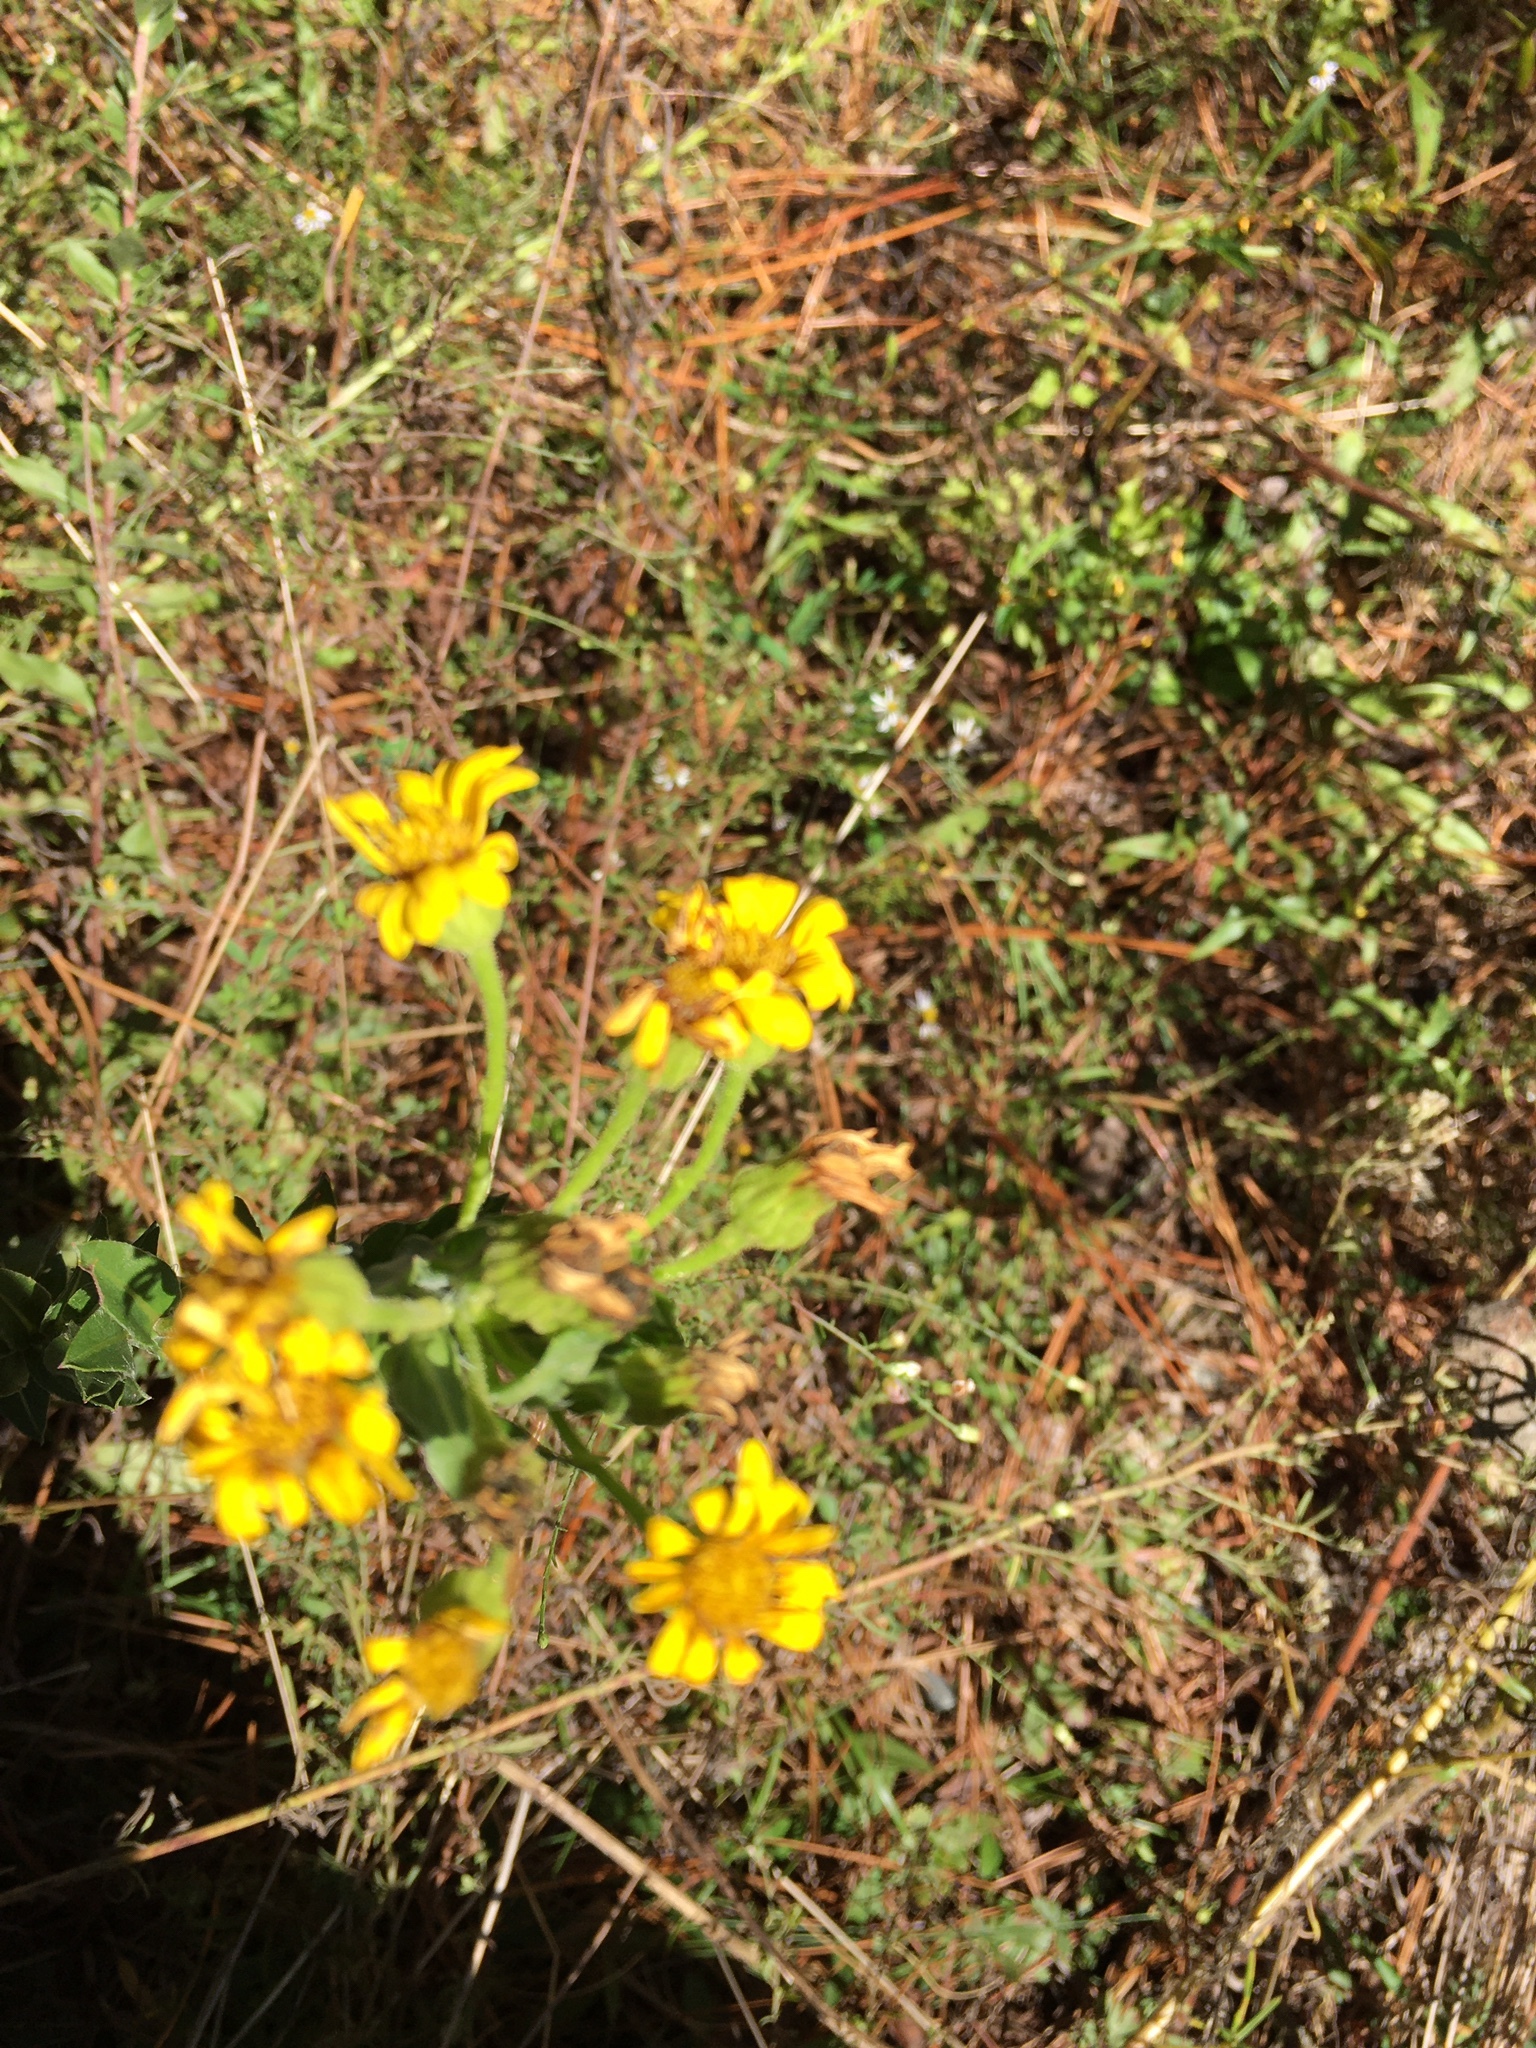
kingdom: Plantae
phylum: Tracheophyta
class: Magnoliopsida
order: Asterales
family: Asteraceae
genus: Chrysopsis
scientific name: Chrysopsis mariana
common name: Maryland golden-aster
